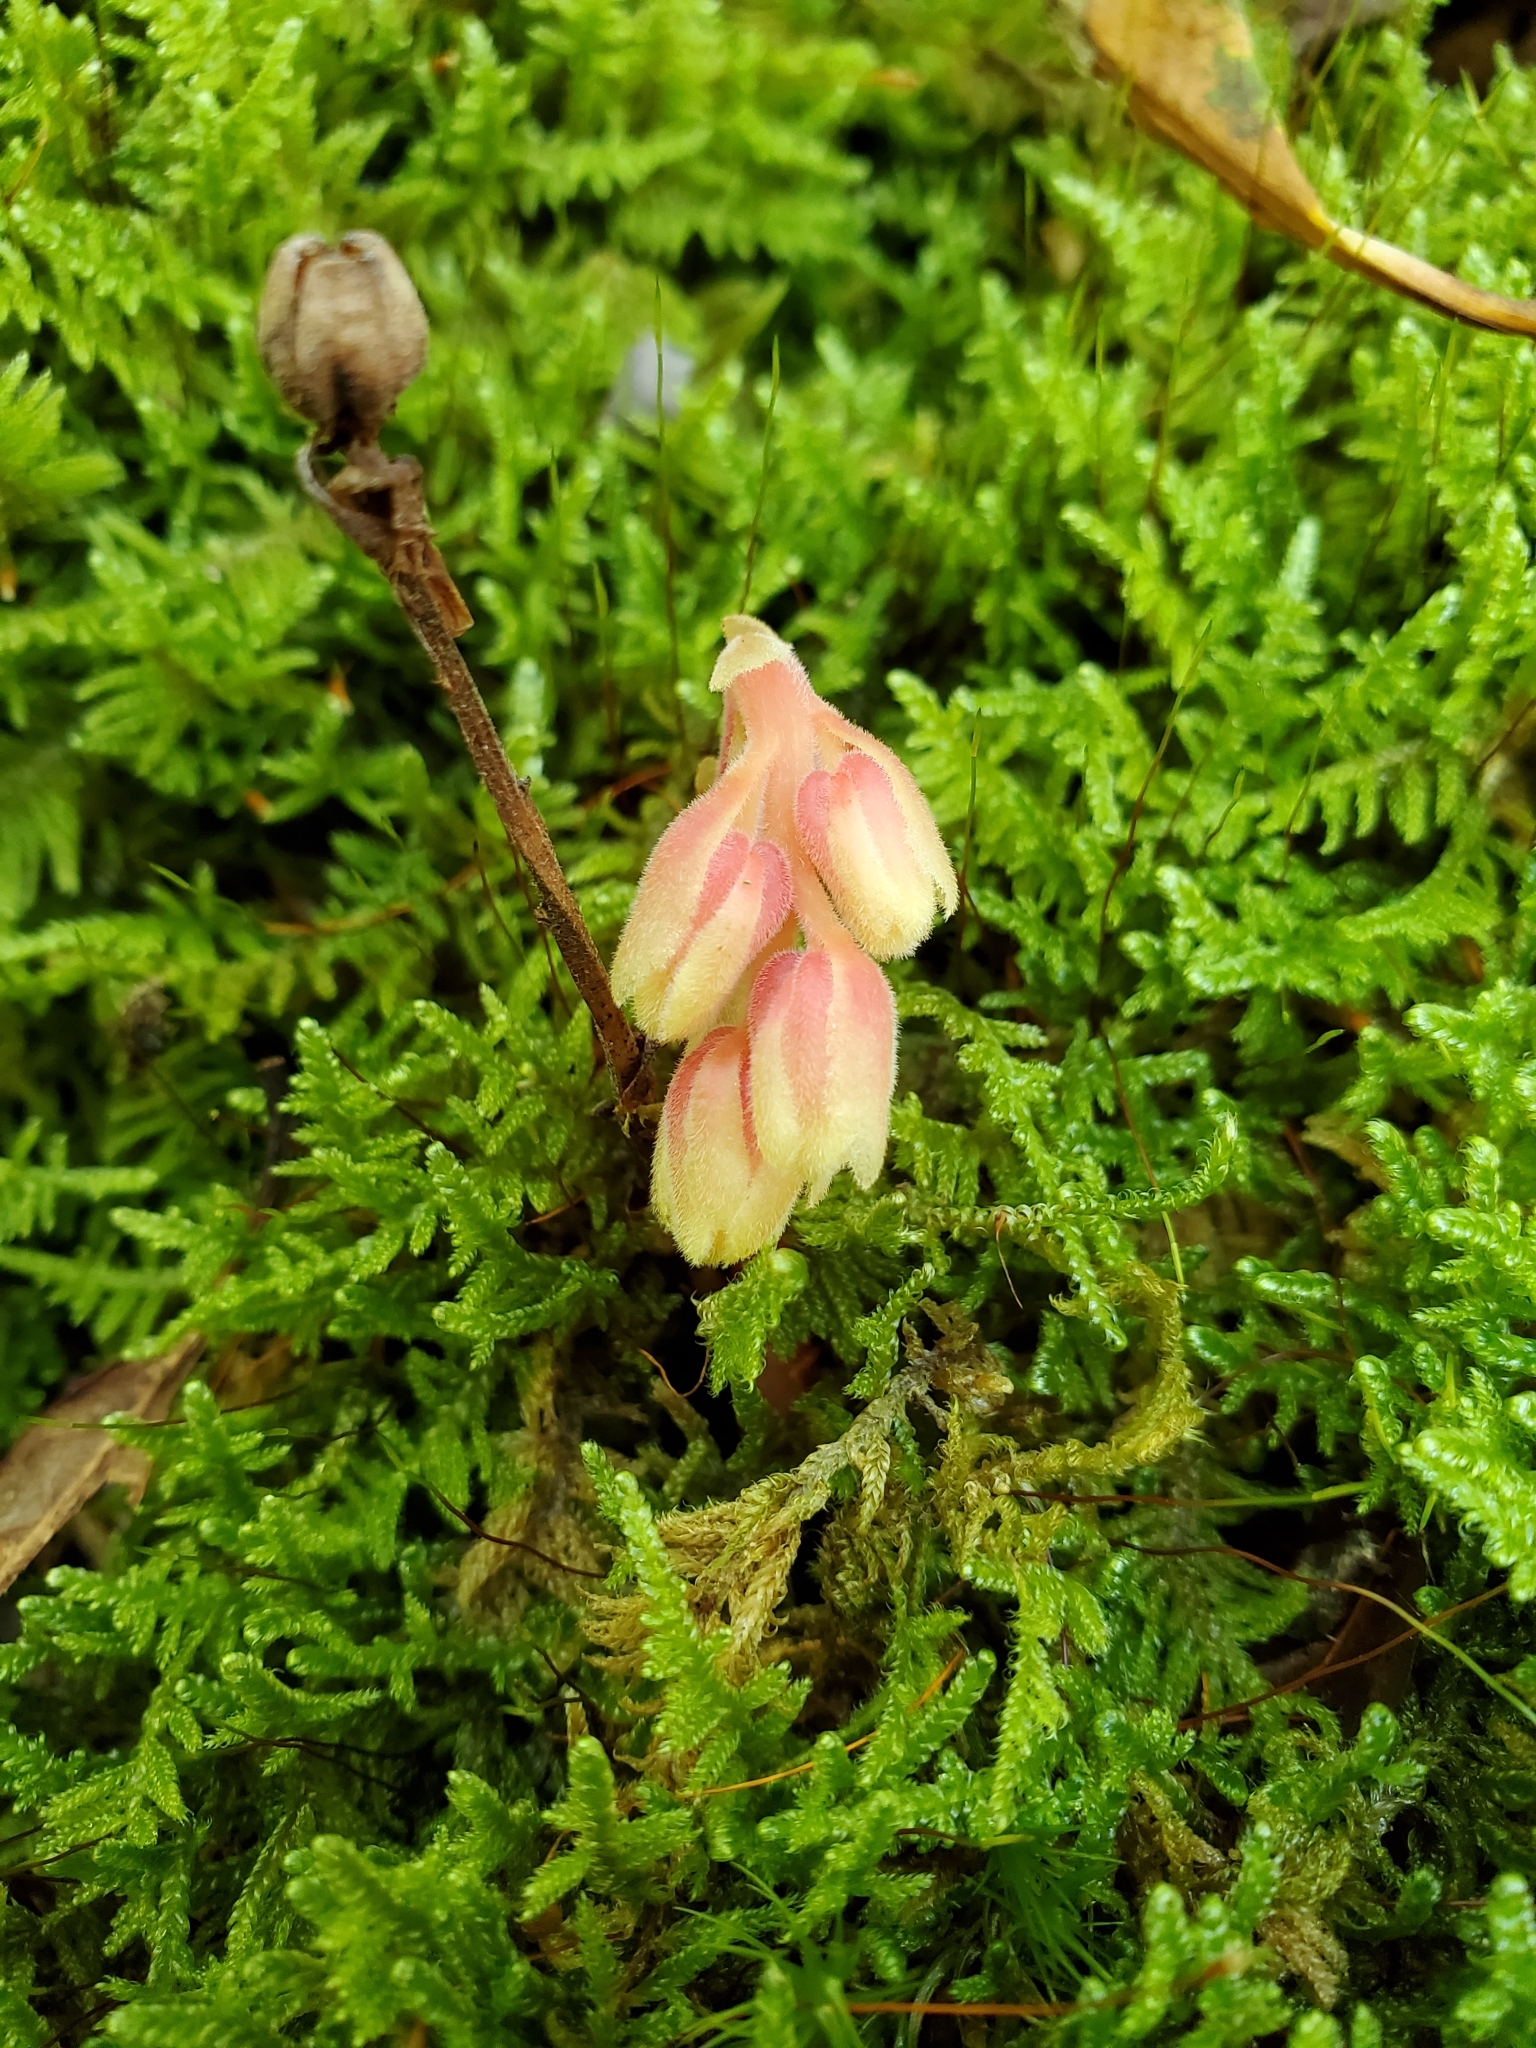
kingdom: Plantae
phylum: Tracheophyta
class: Magnoliopsida
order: Ericales
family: Ericaceae
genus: Hypopitys
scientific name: Hypopitys monotropa
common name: Yellow bird's-nest
